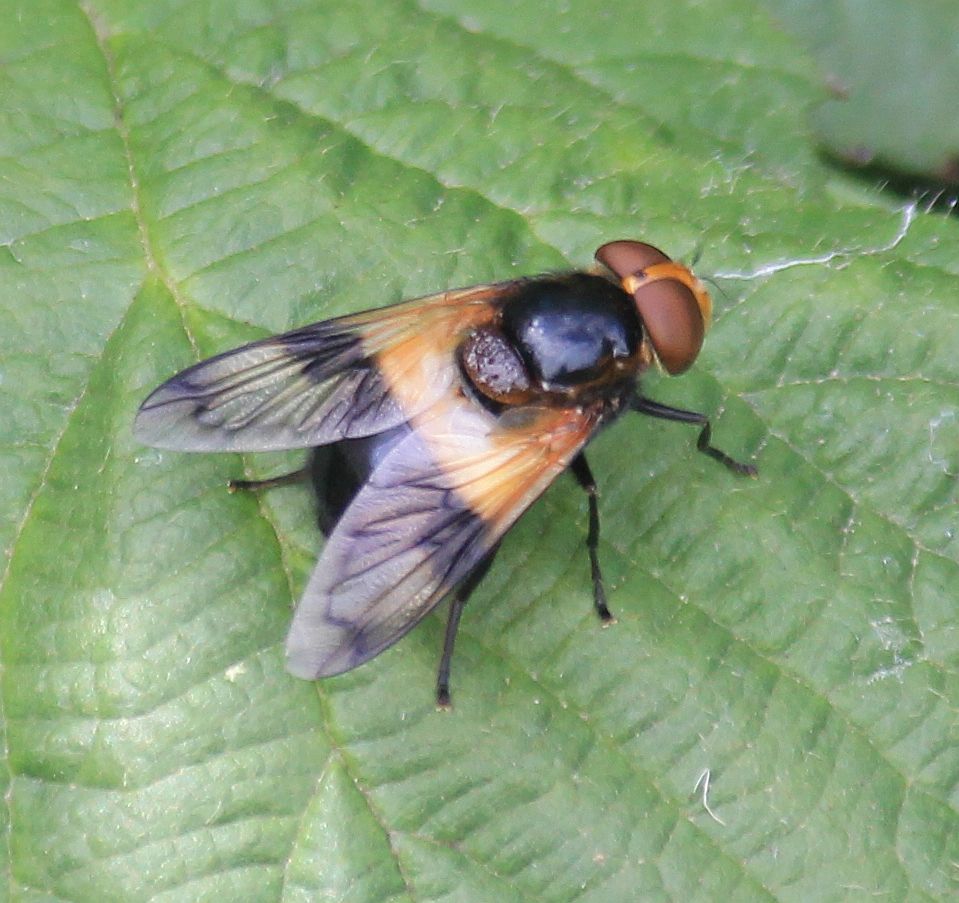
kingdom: Animalia
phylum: Arthropoda
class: Insecta
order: Diptera
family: Syrphidae
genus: Volucella
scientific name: Volucella pellucens
